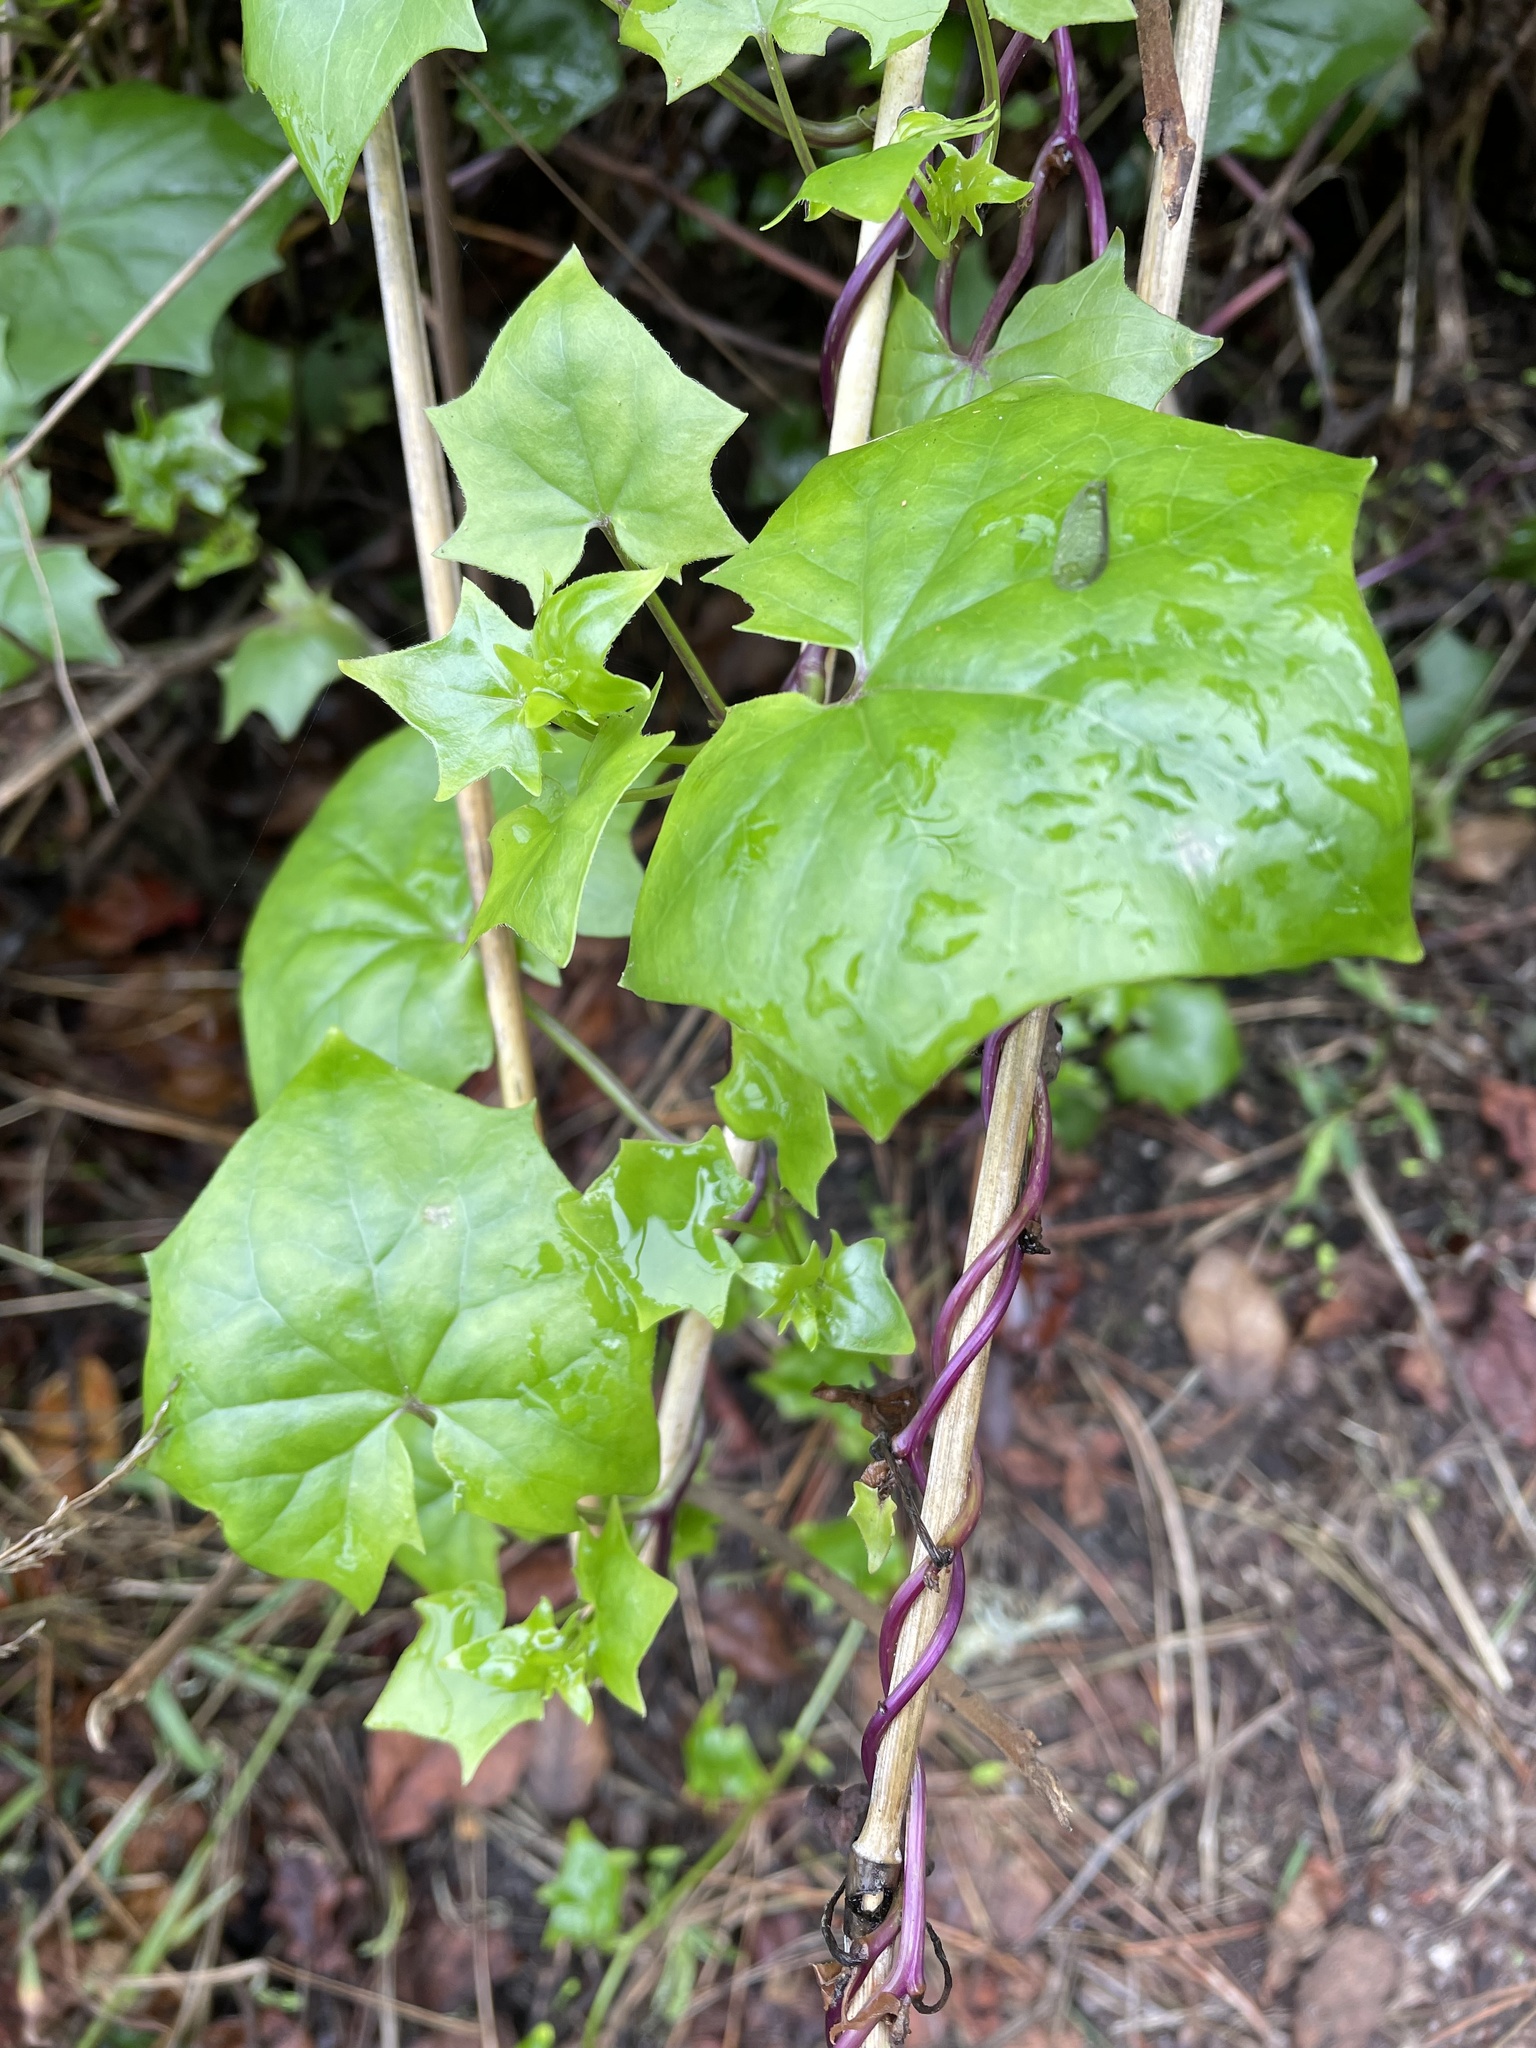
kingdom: Plantae
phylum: Tracheophyta
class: Magnoliopsida
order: Asterales
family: Asteraceae
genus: Delairea
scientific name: Delairea odorata
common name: Cape-ivy
